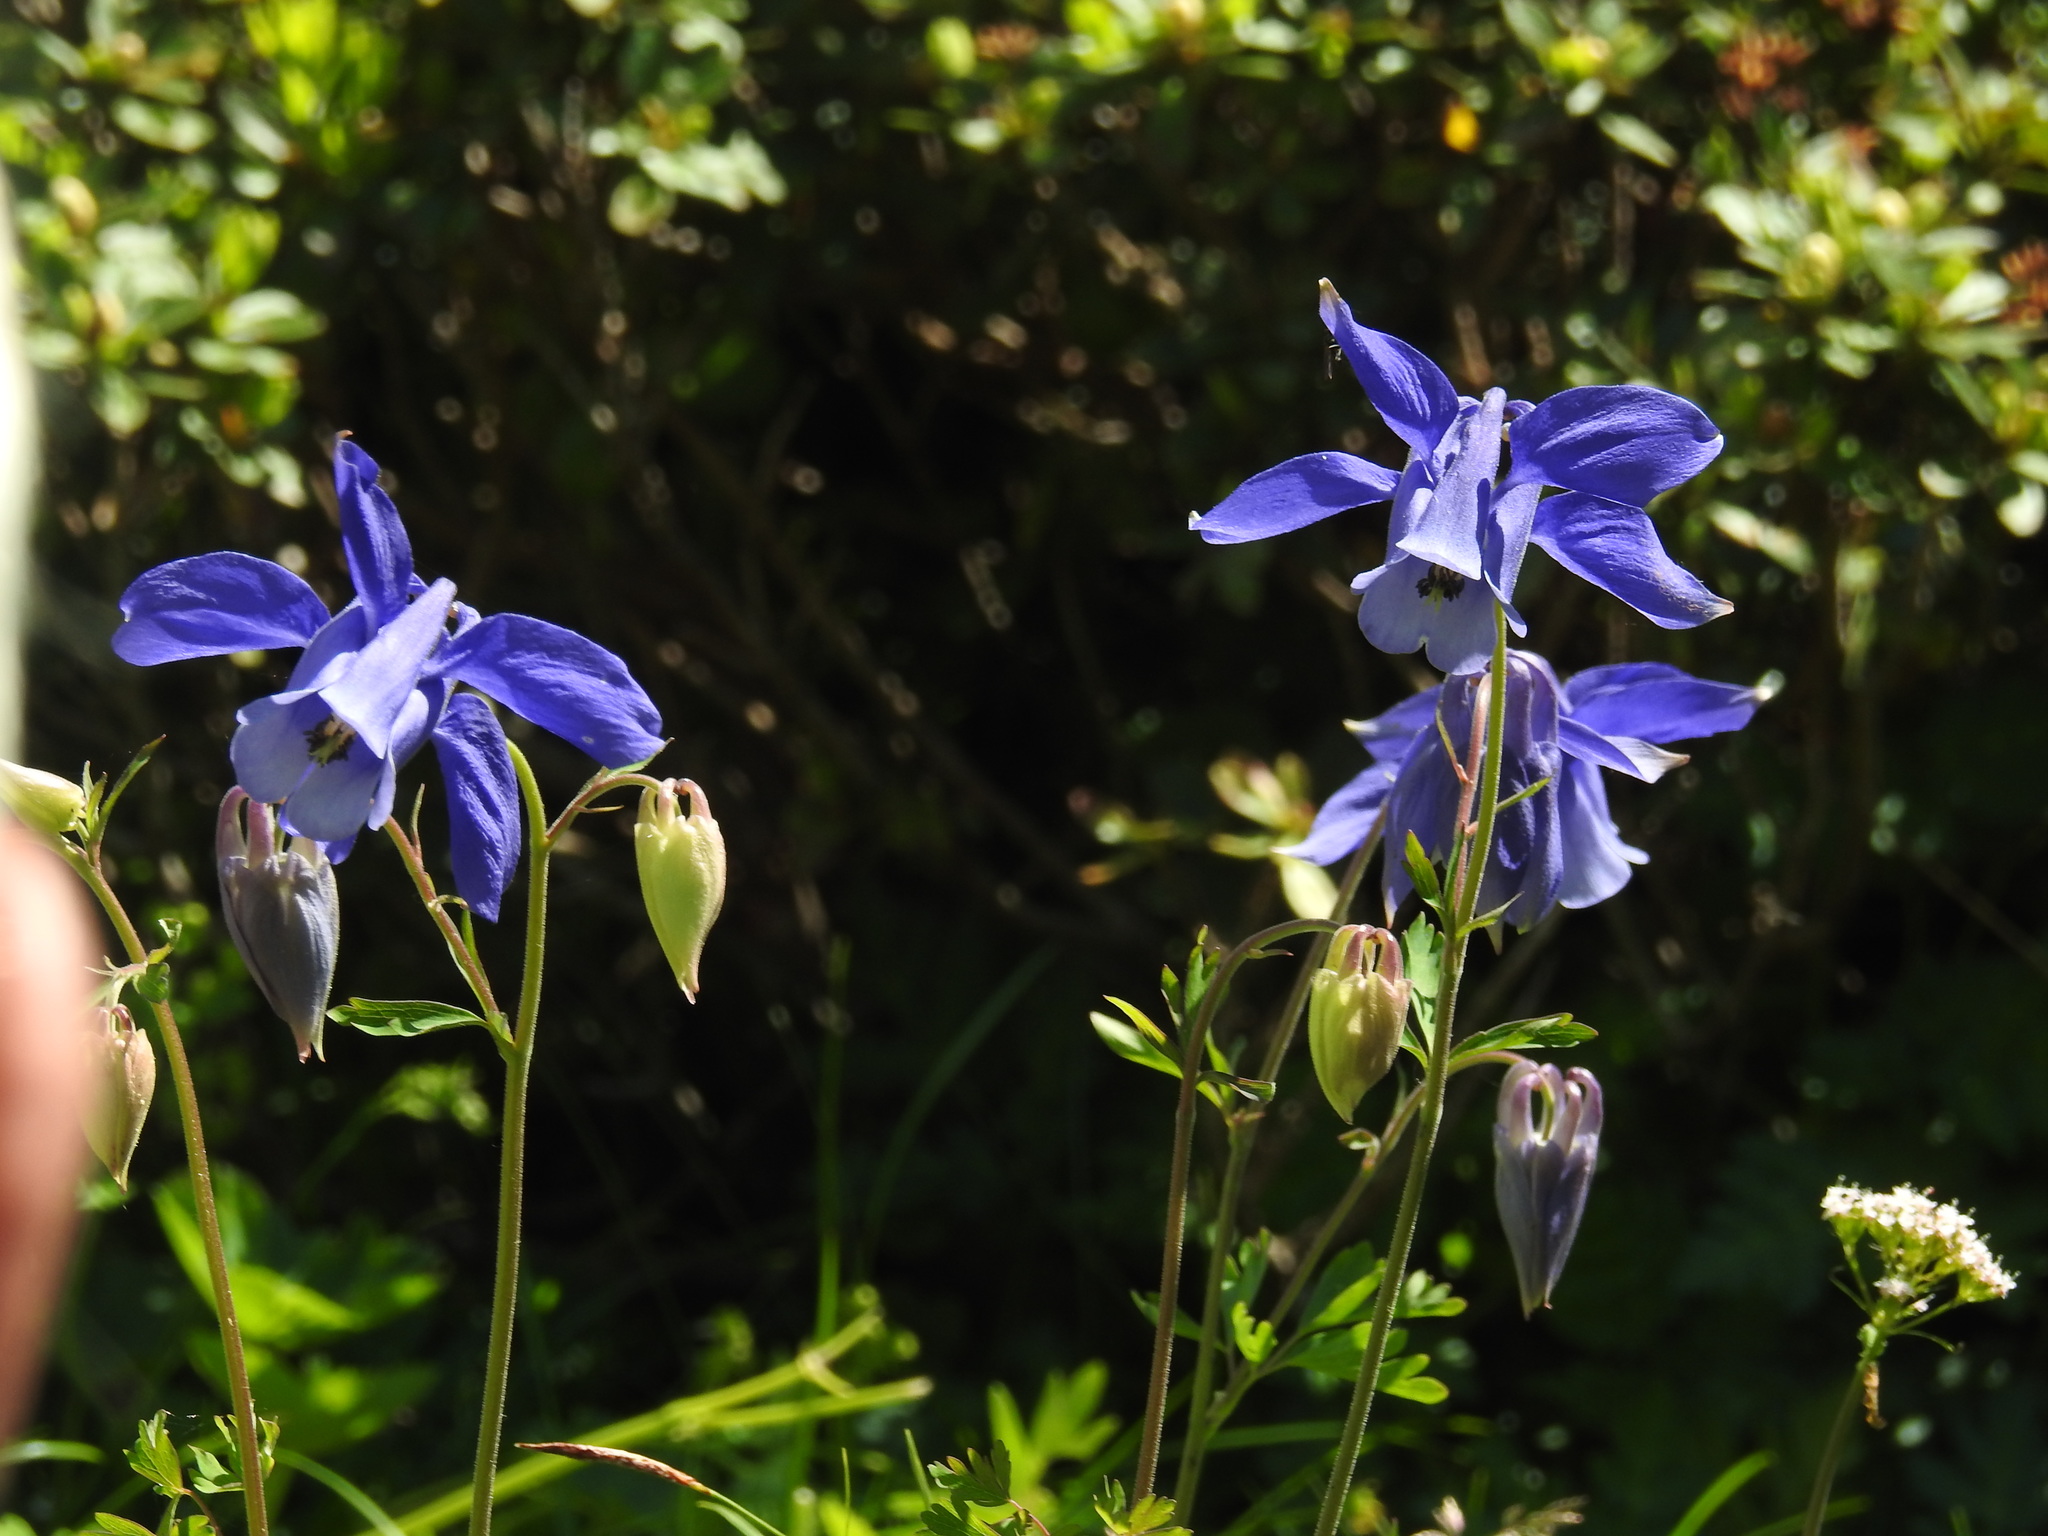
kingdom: Plantae
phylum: Tracheophyta
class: Magnoliopsida
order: Ranunculales
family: Ranunculaceae
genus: Aquilegia
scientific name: Aquilegia alpina
